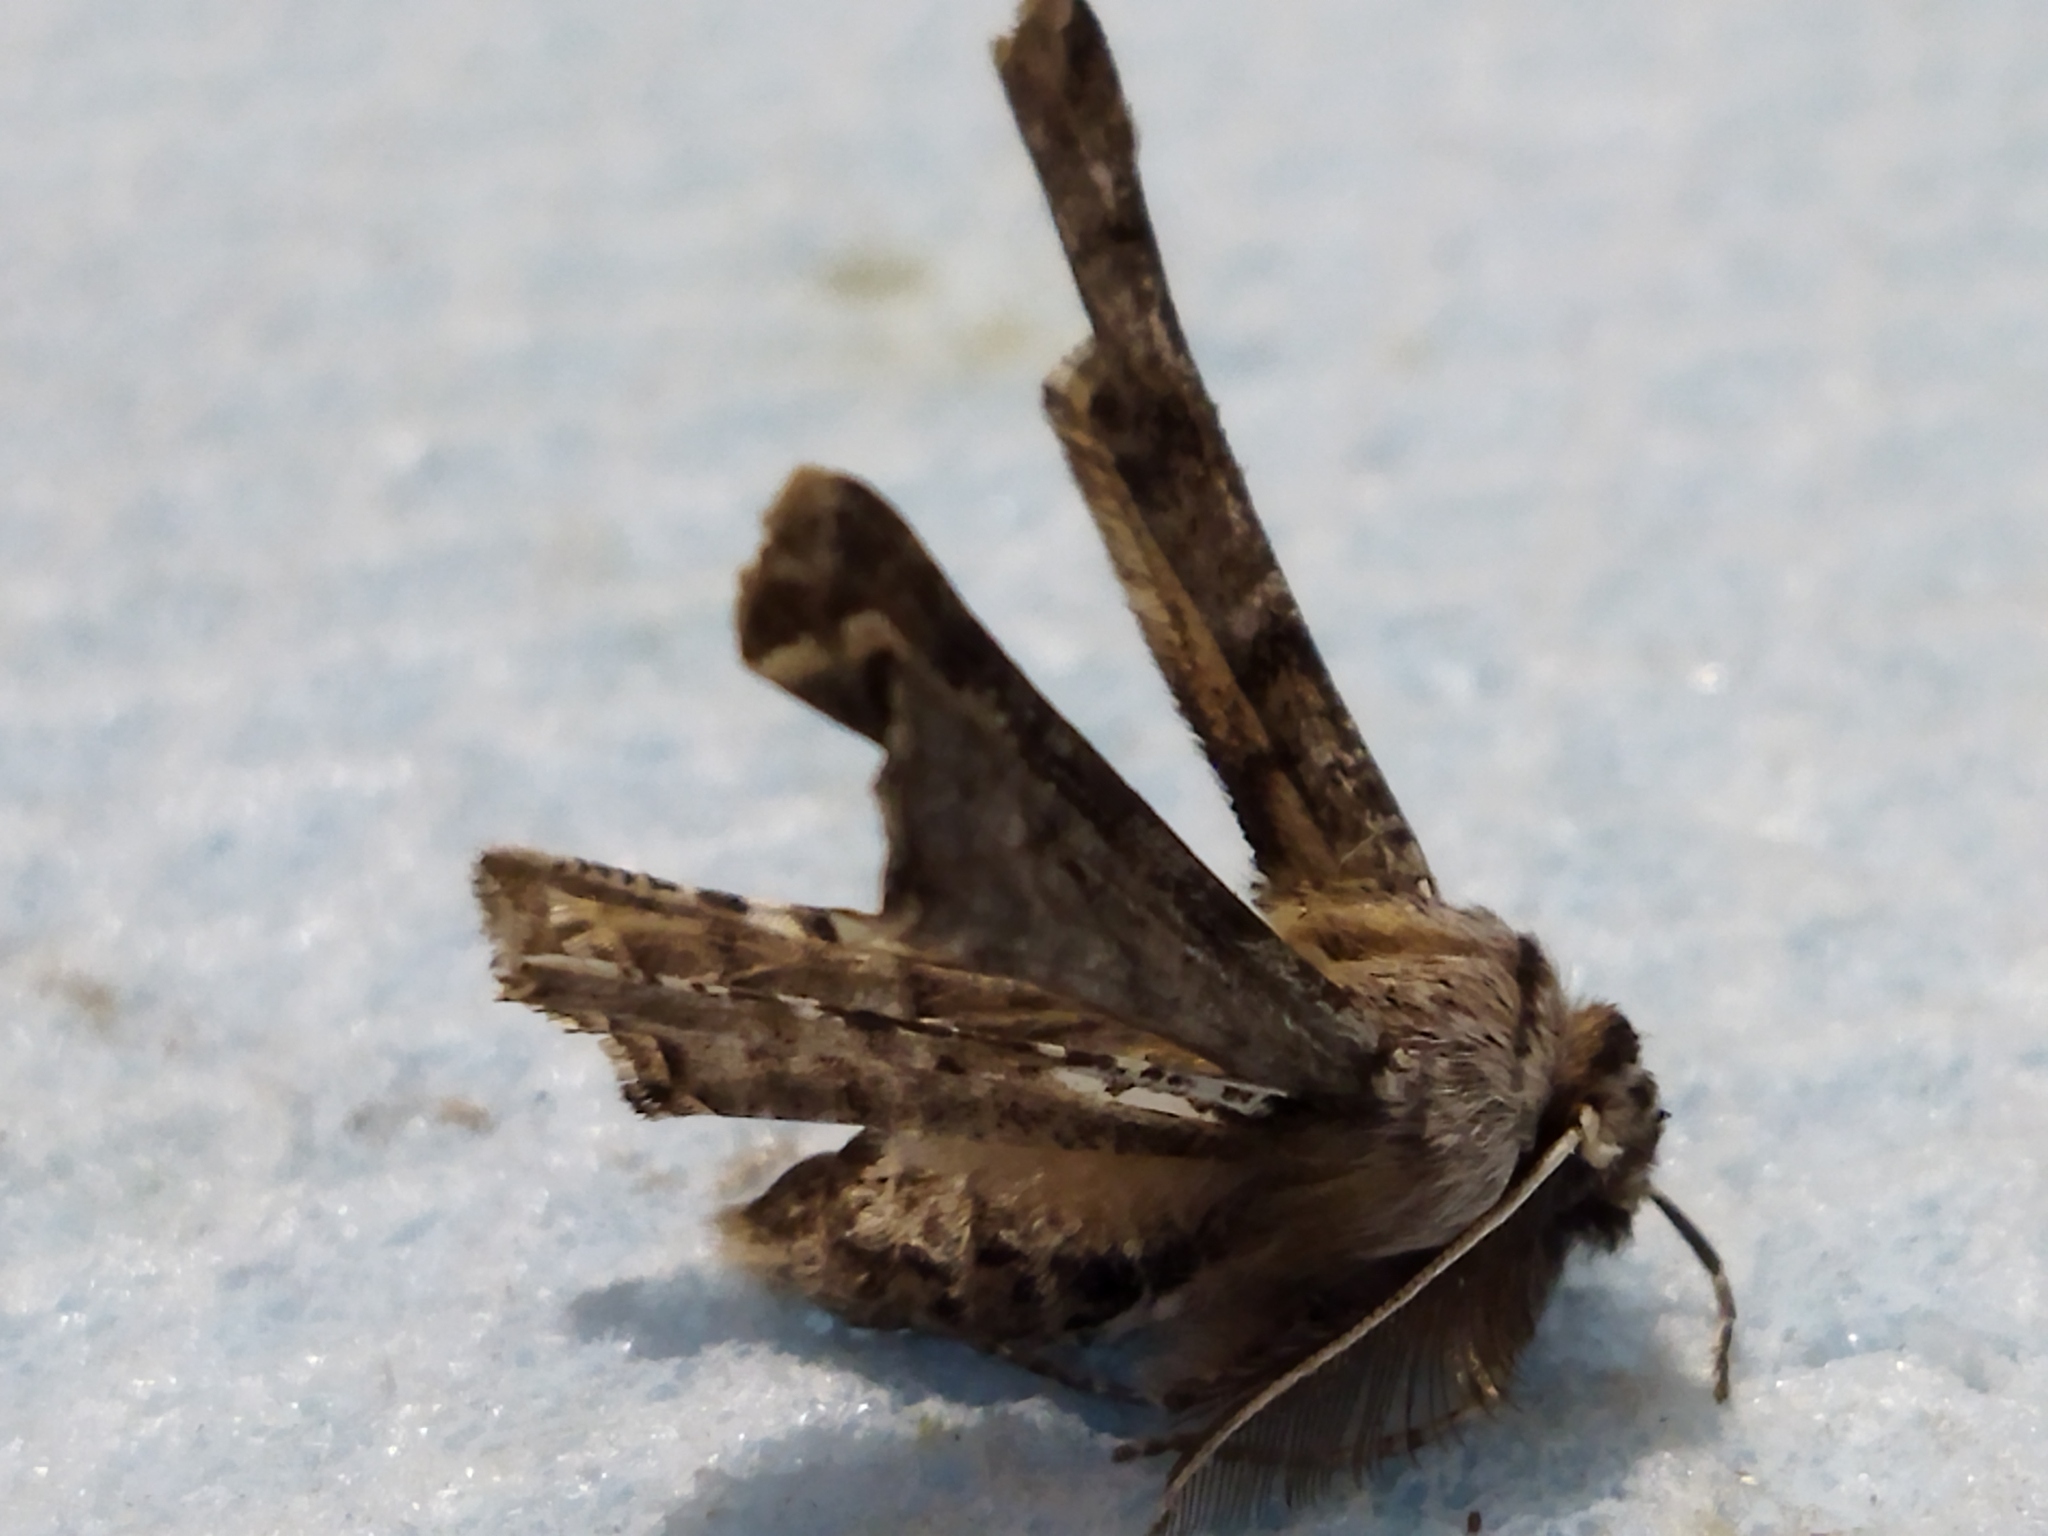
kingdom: Animalia
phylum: Arthropoda
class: Insecta
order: Lepidoptera
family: Geometridae
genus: Apochima
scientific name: Apochima flabellaria
